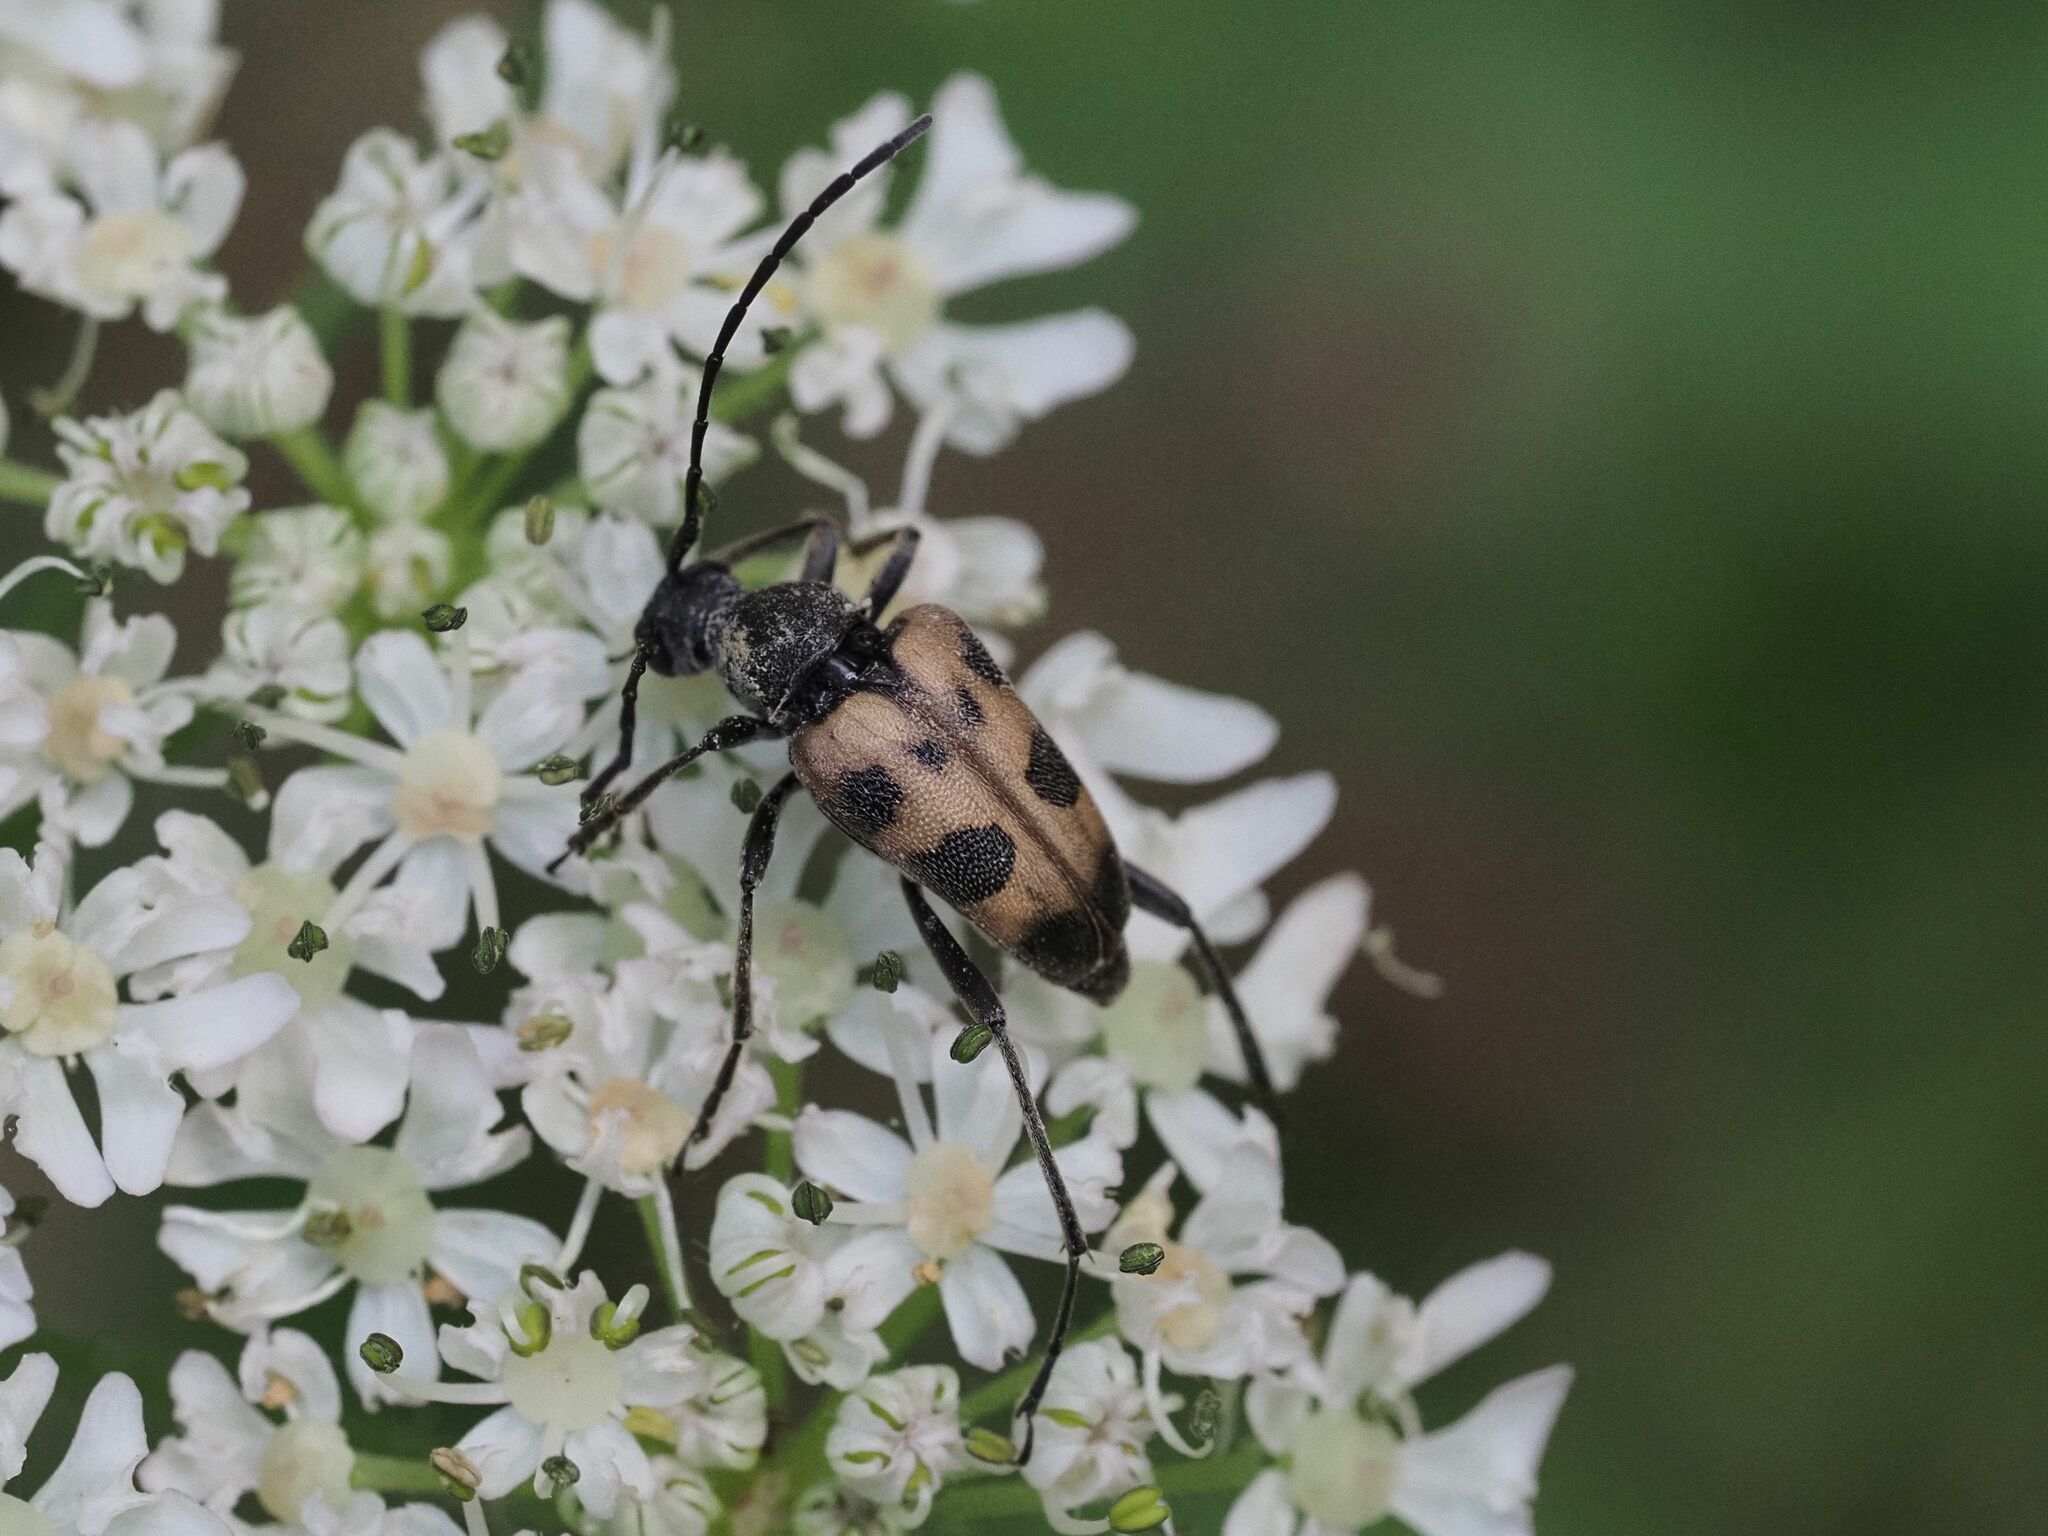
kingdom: Animalia
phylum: Arthropoda
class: Insecta
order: Coleoptera
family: Cerambycidae
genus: Pachytodes
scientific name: Pachytodes cerambyciformis
